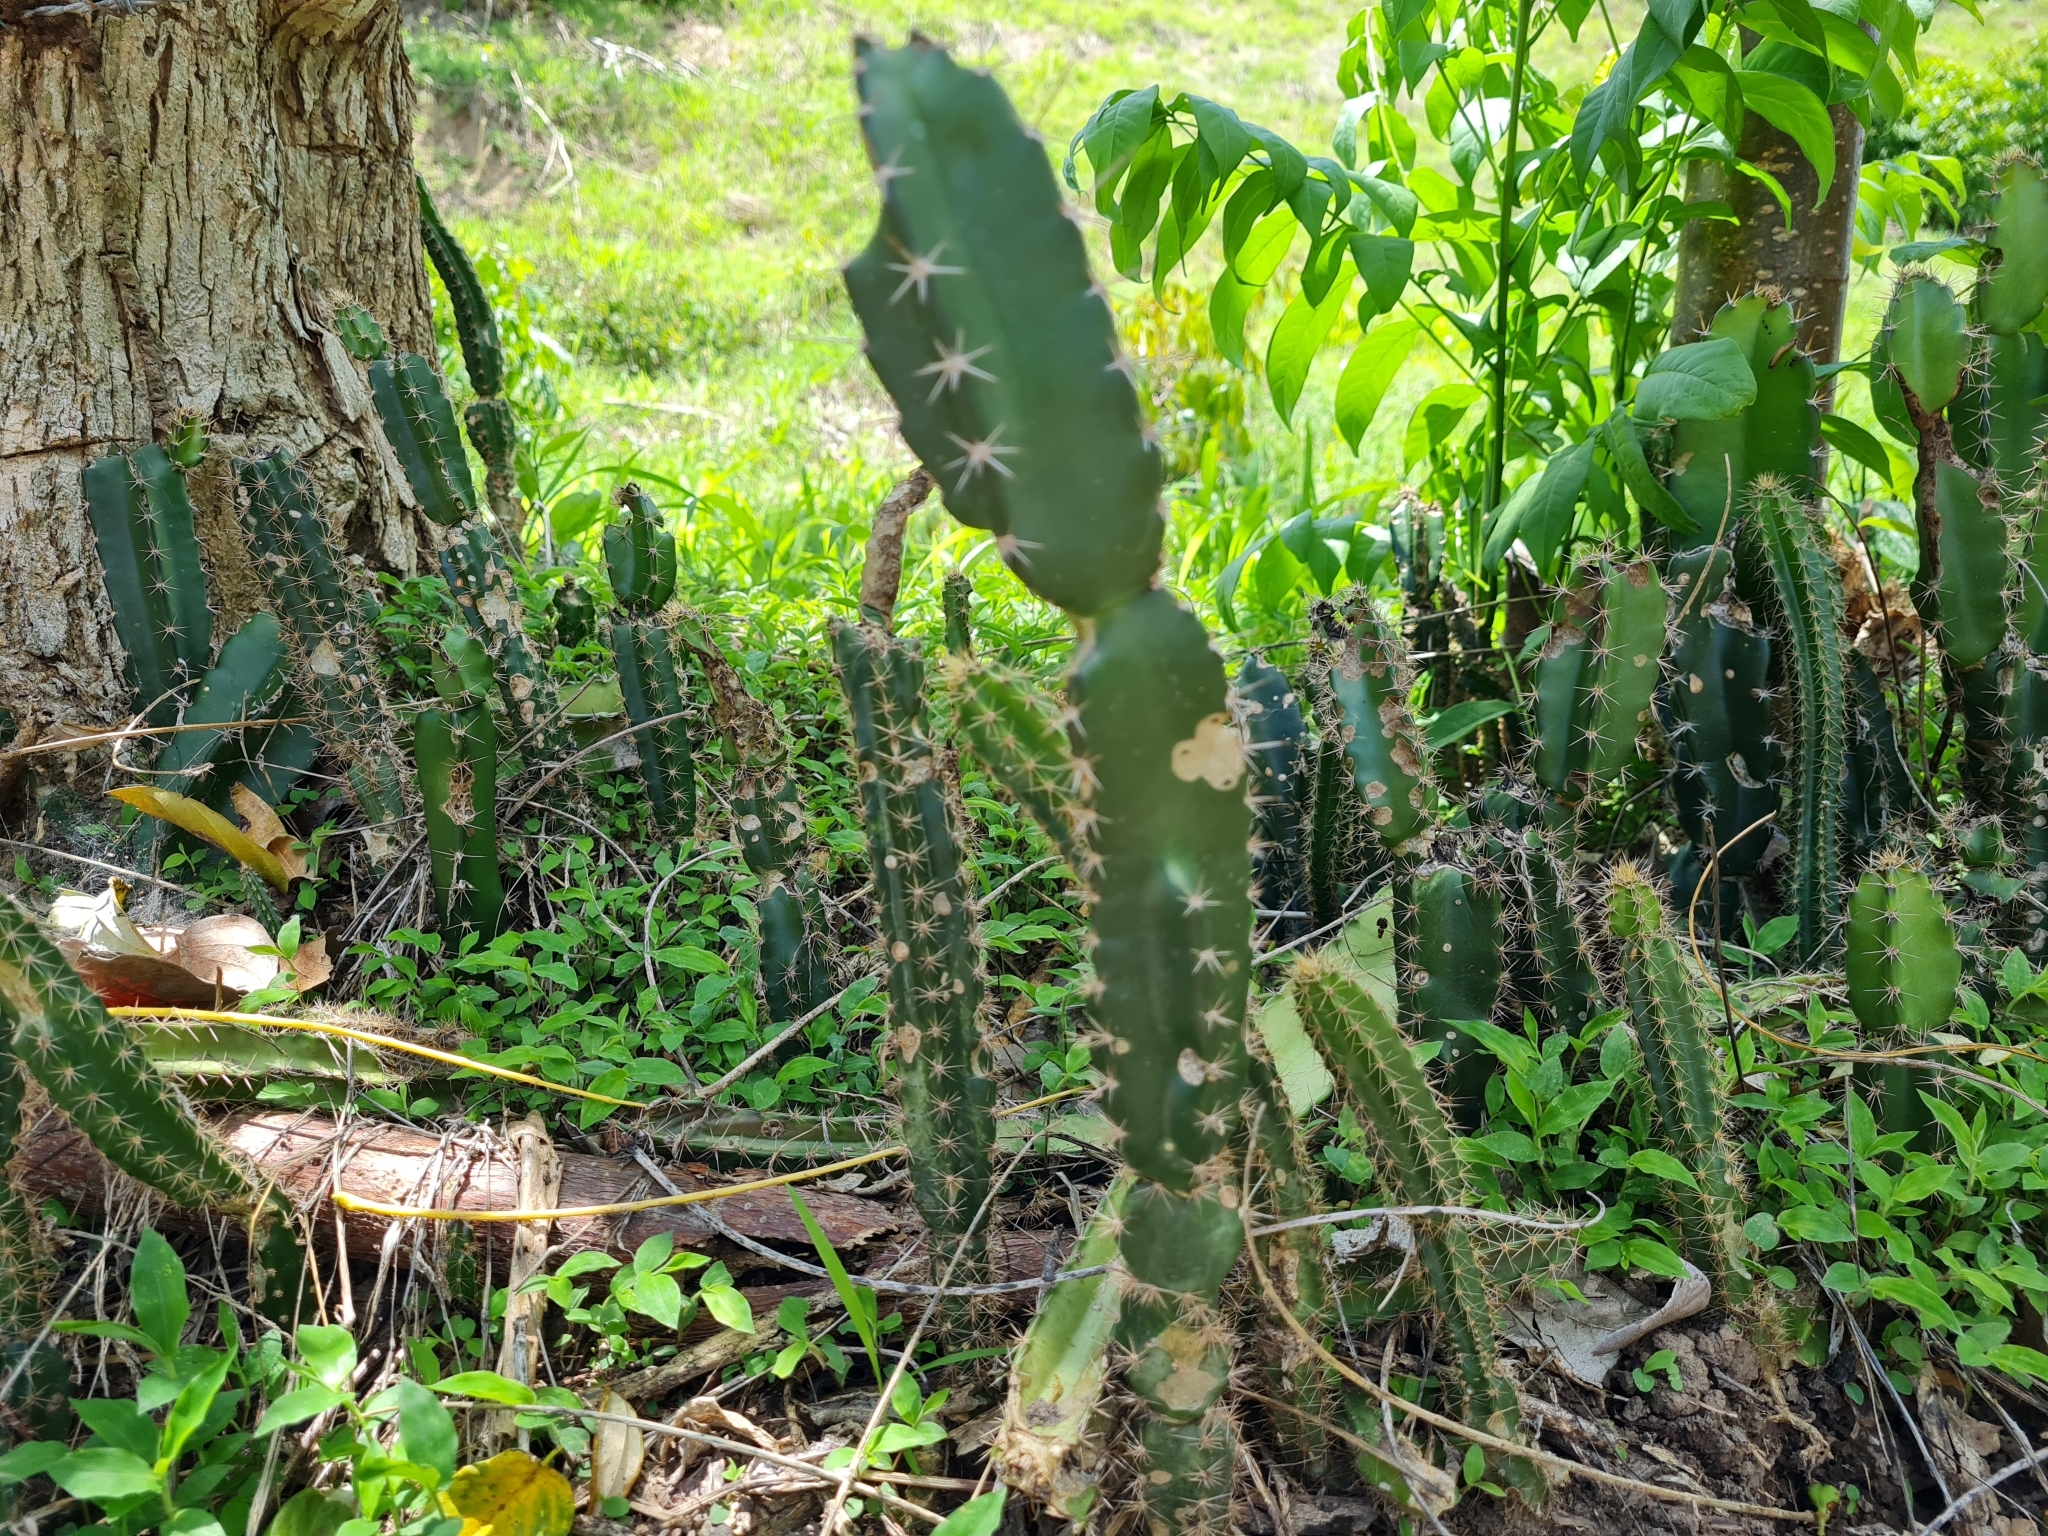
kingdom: Plantae
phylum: Tracheophyta
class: Magnoliopsida
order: Caryophyllales
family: Cactaceae
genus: Acanthocereus
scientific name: Acanthocereus tetragonus
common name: Triangle cactus
